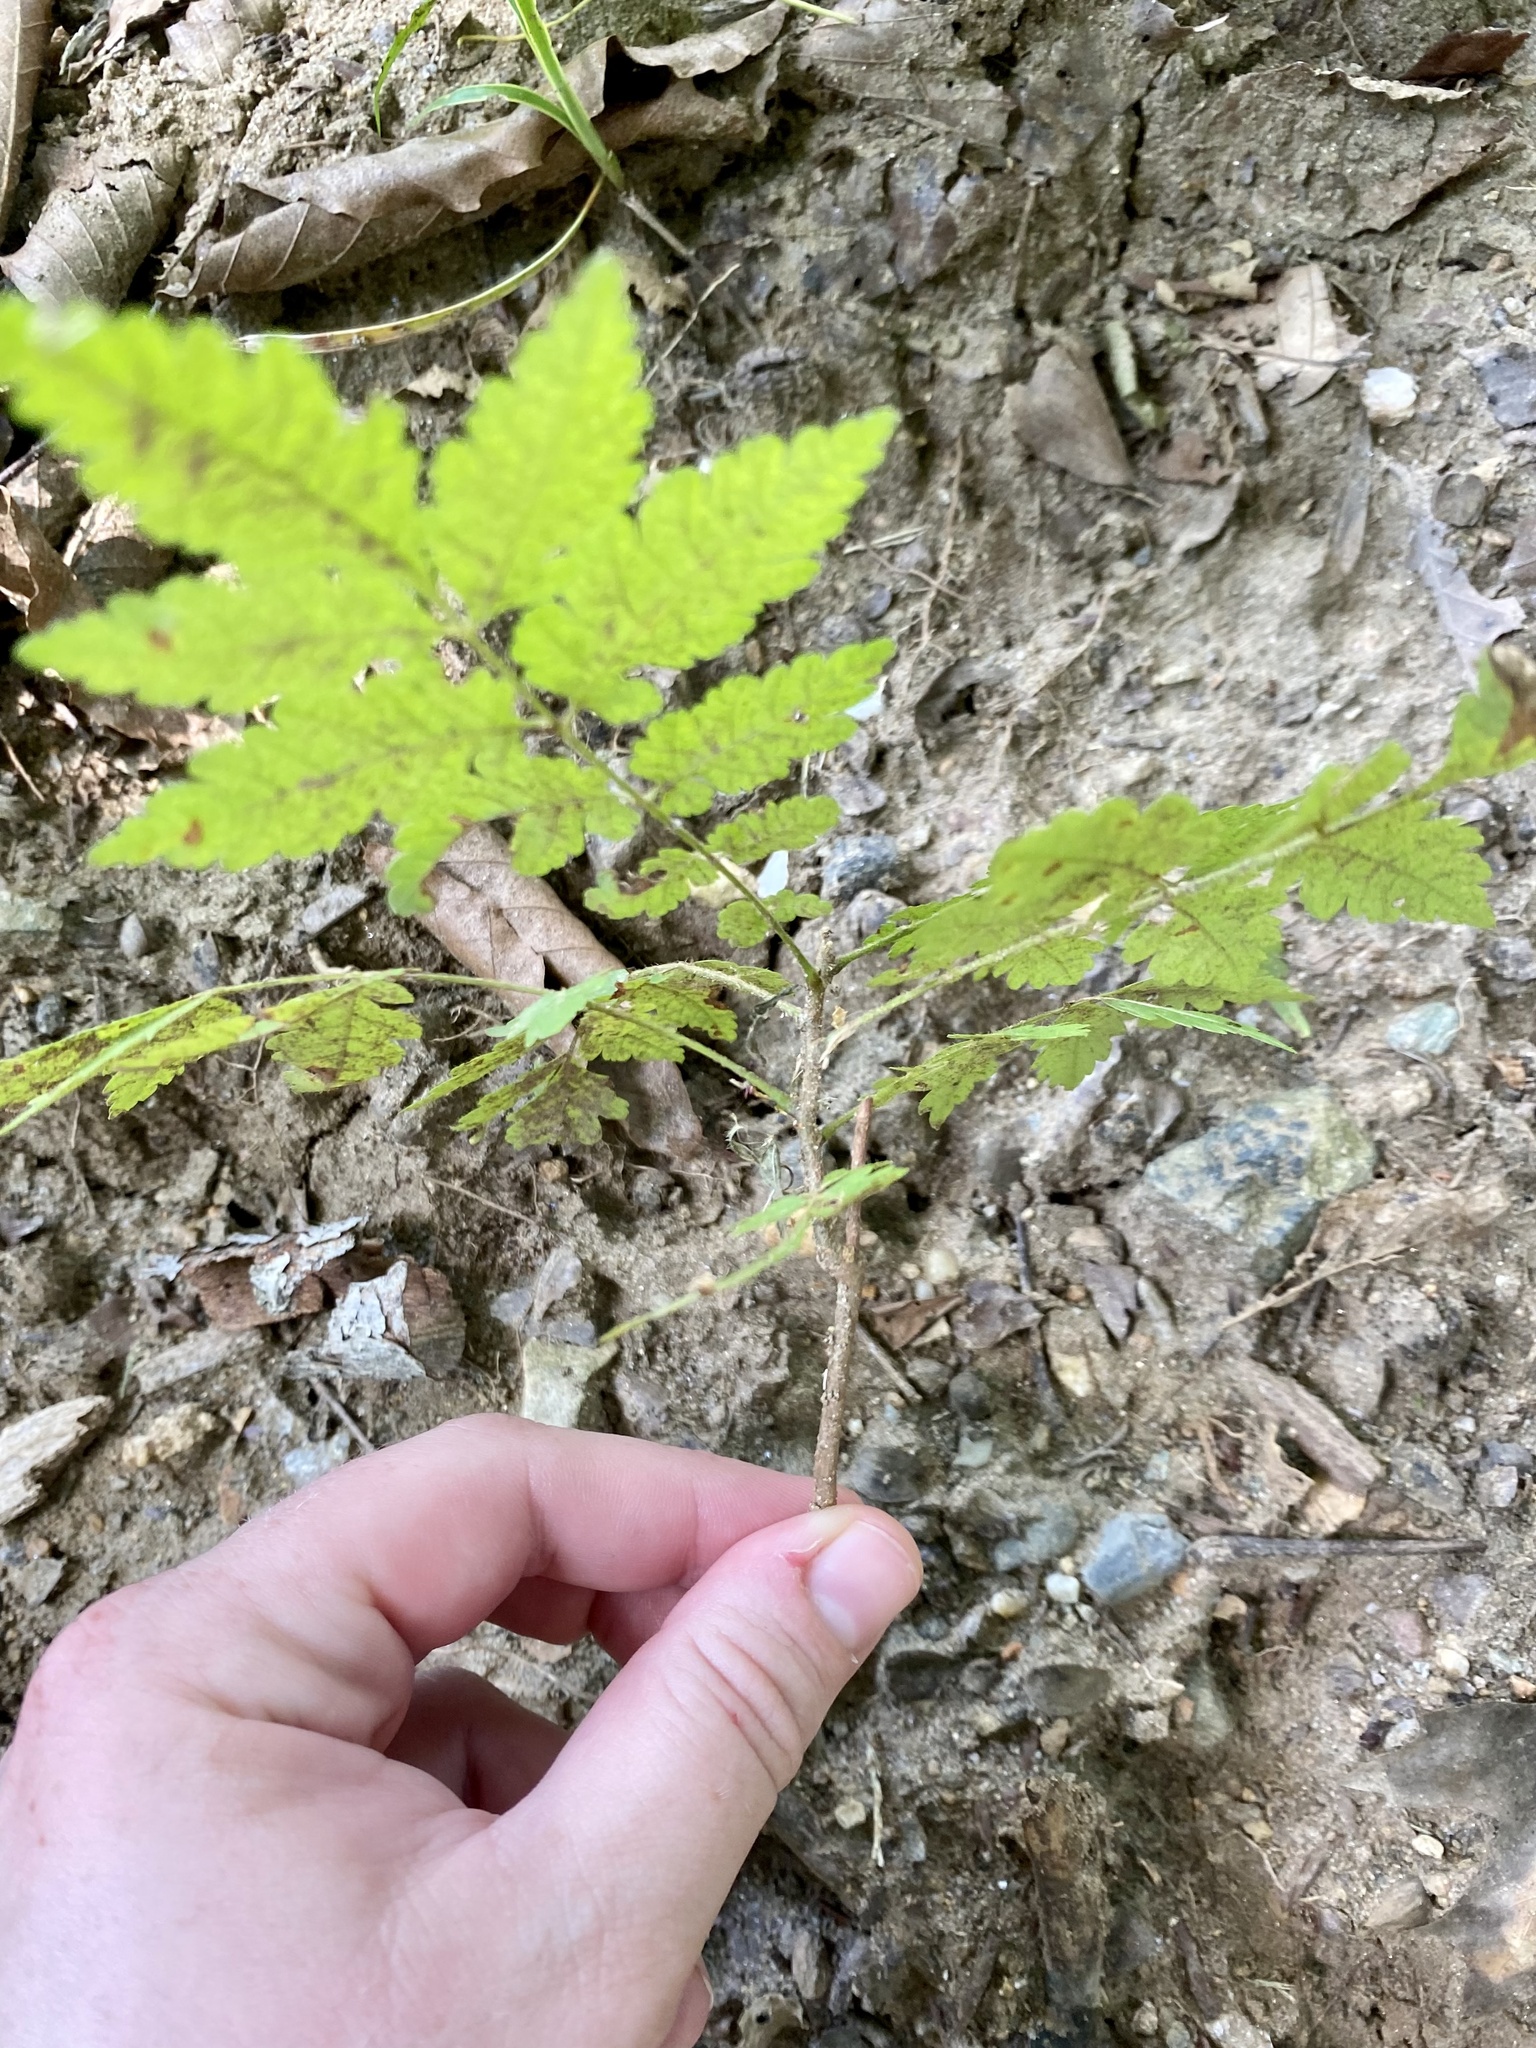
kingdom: Plantae
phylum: Tracheophyta
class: Magnoliopsida
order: Sapindales
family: Sapindaceae
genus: Koelreuteria
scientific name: Koelreuteria paniculata
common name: Pride-of-india
